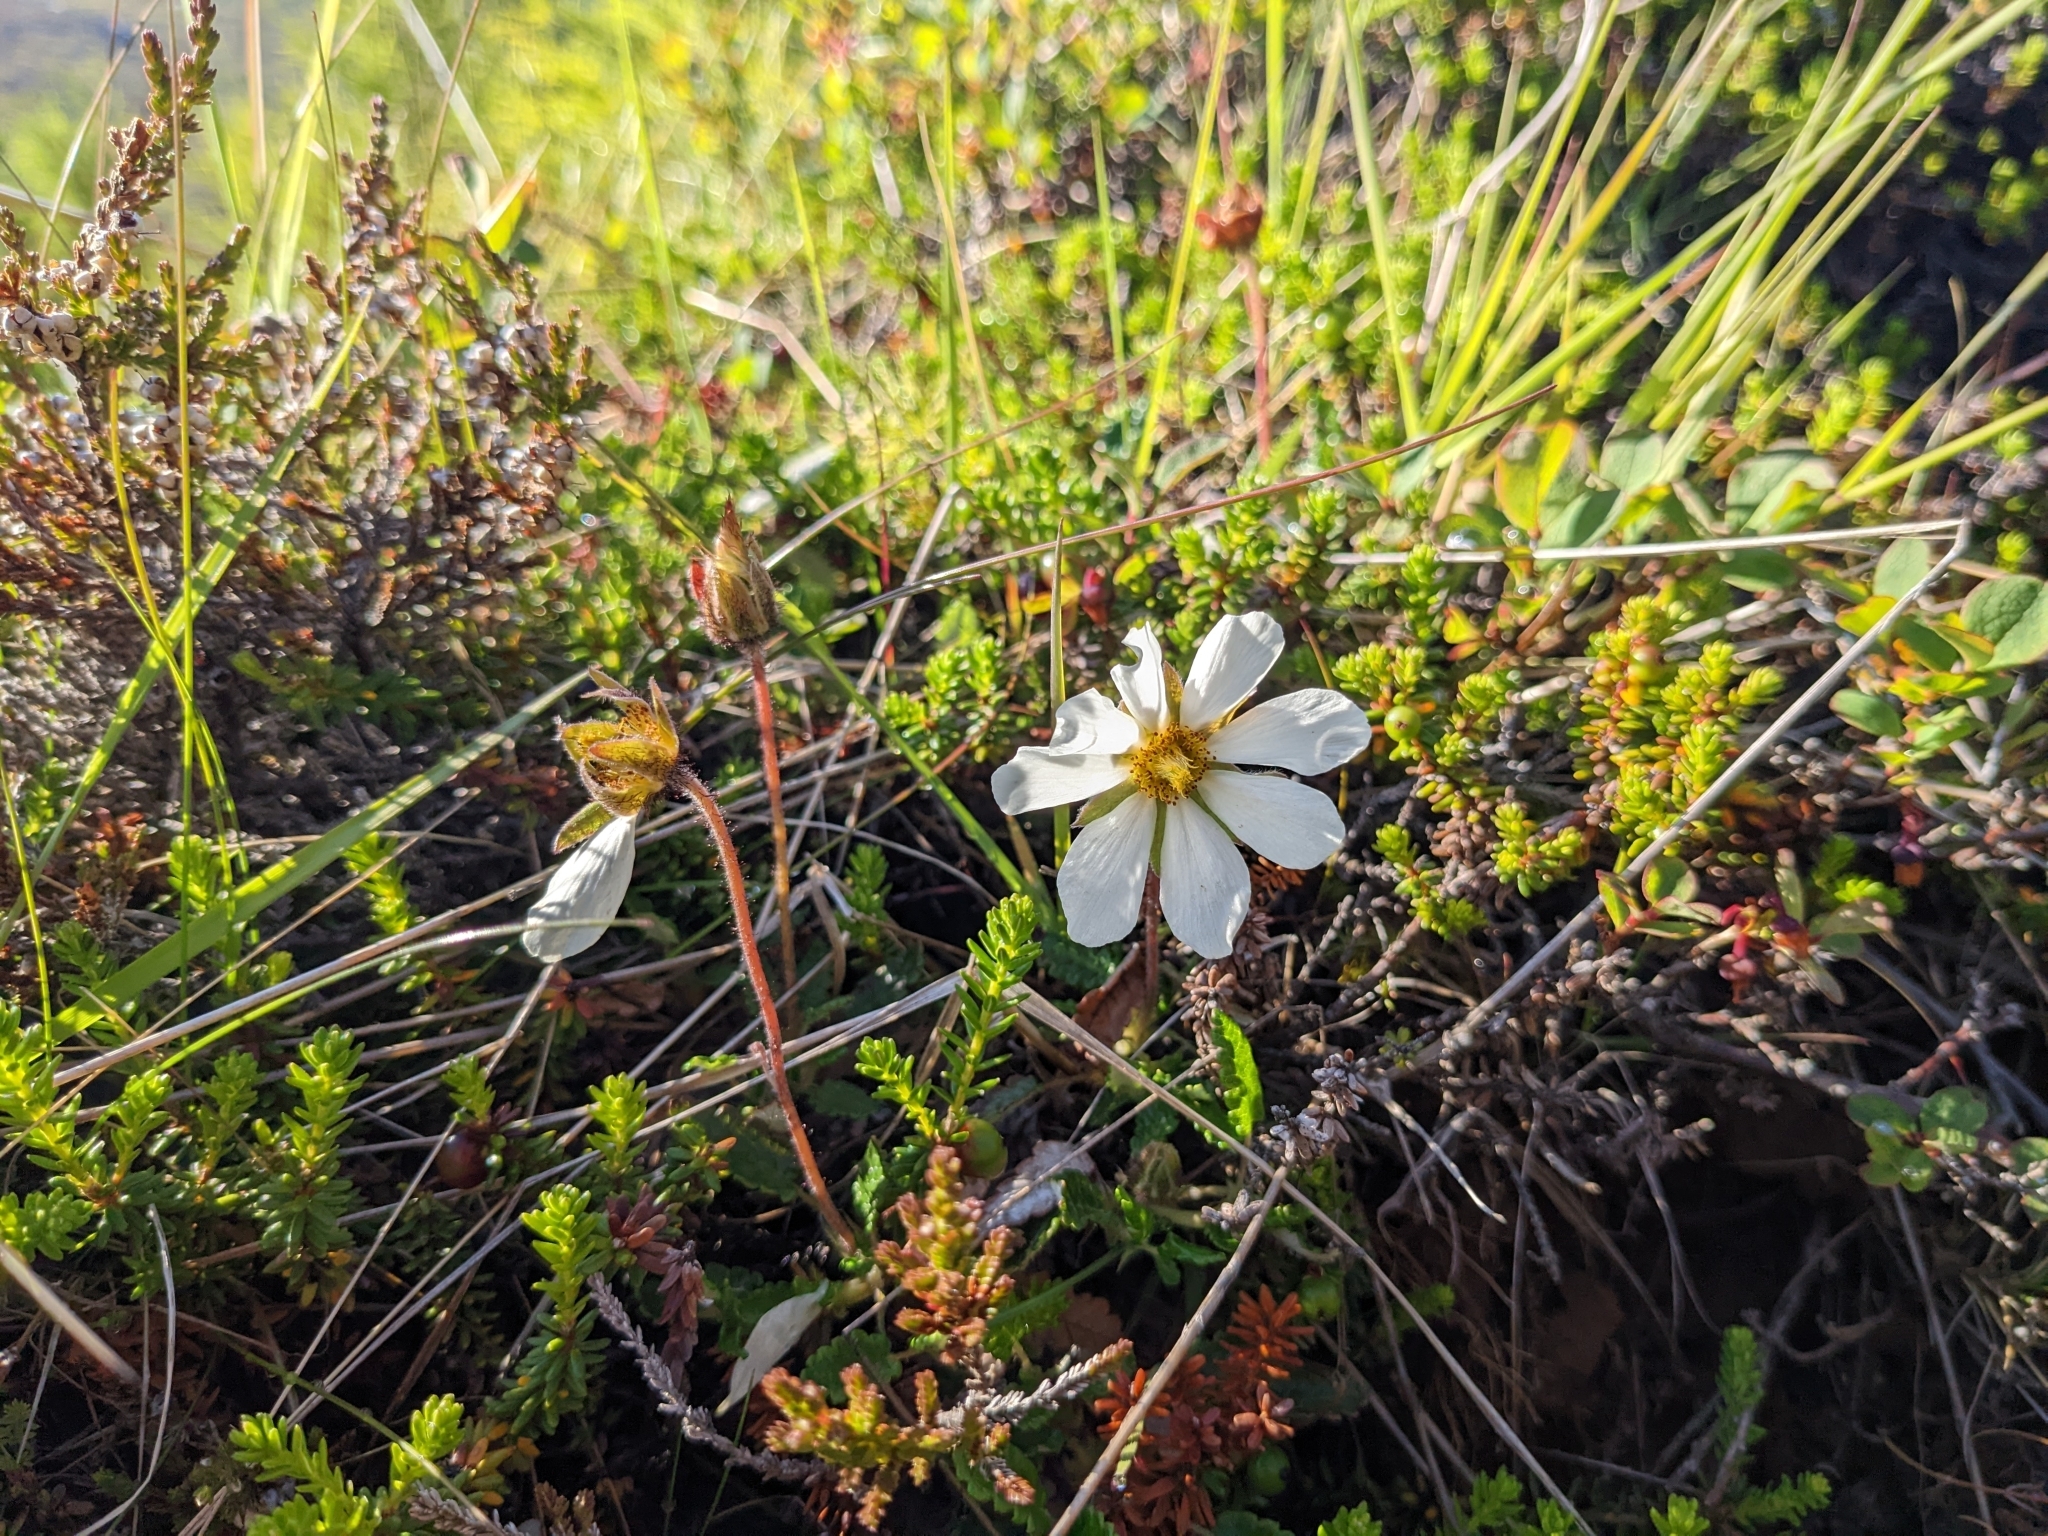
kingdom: Plantae
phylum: Tracheophyta
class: Magnoliopsida
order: Rosales
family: Rosaceae
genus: Dryas
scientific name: Dryas octopetala
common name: Eight-petal mountain-avens
